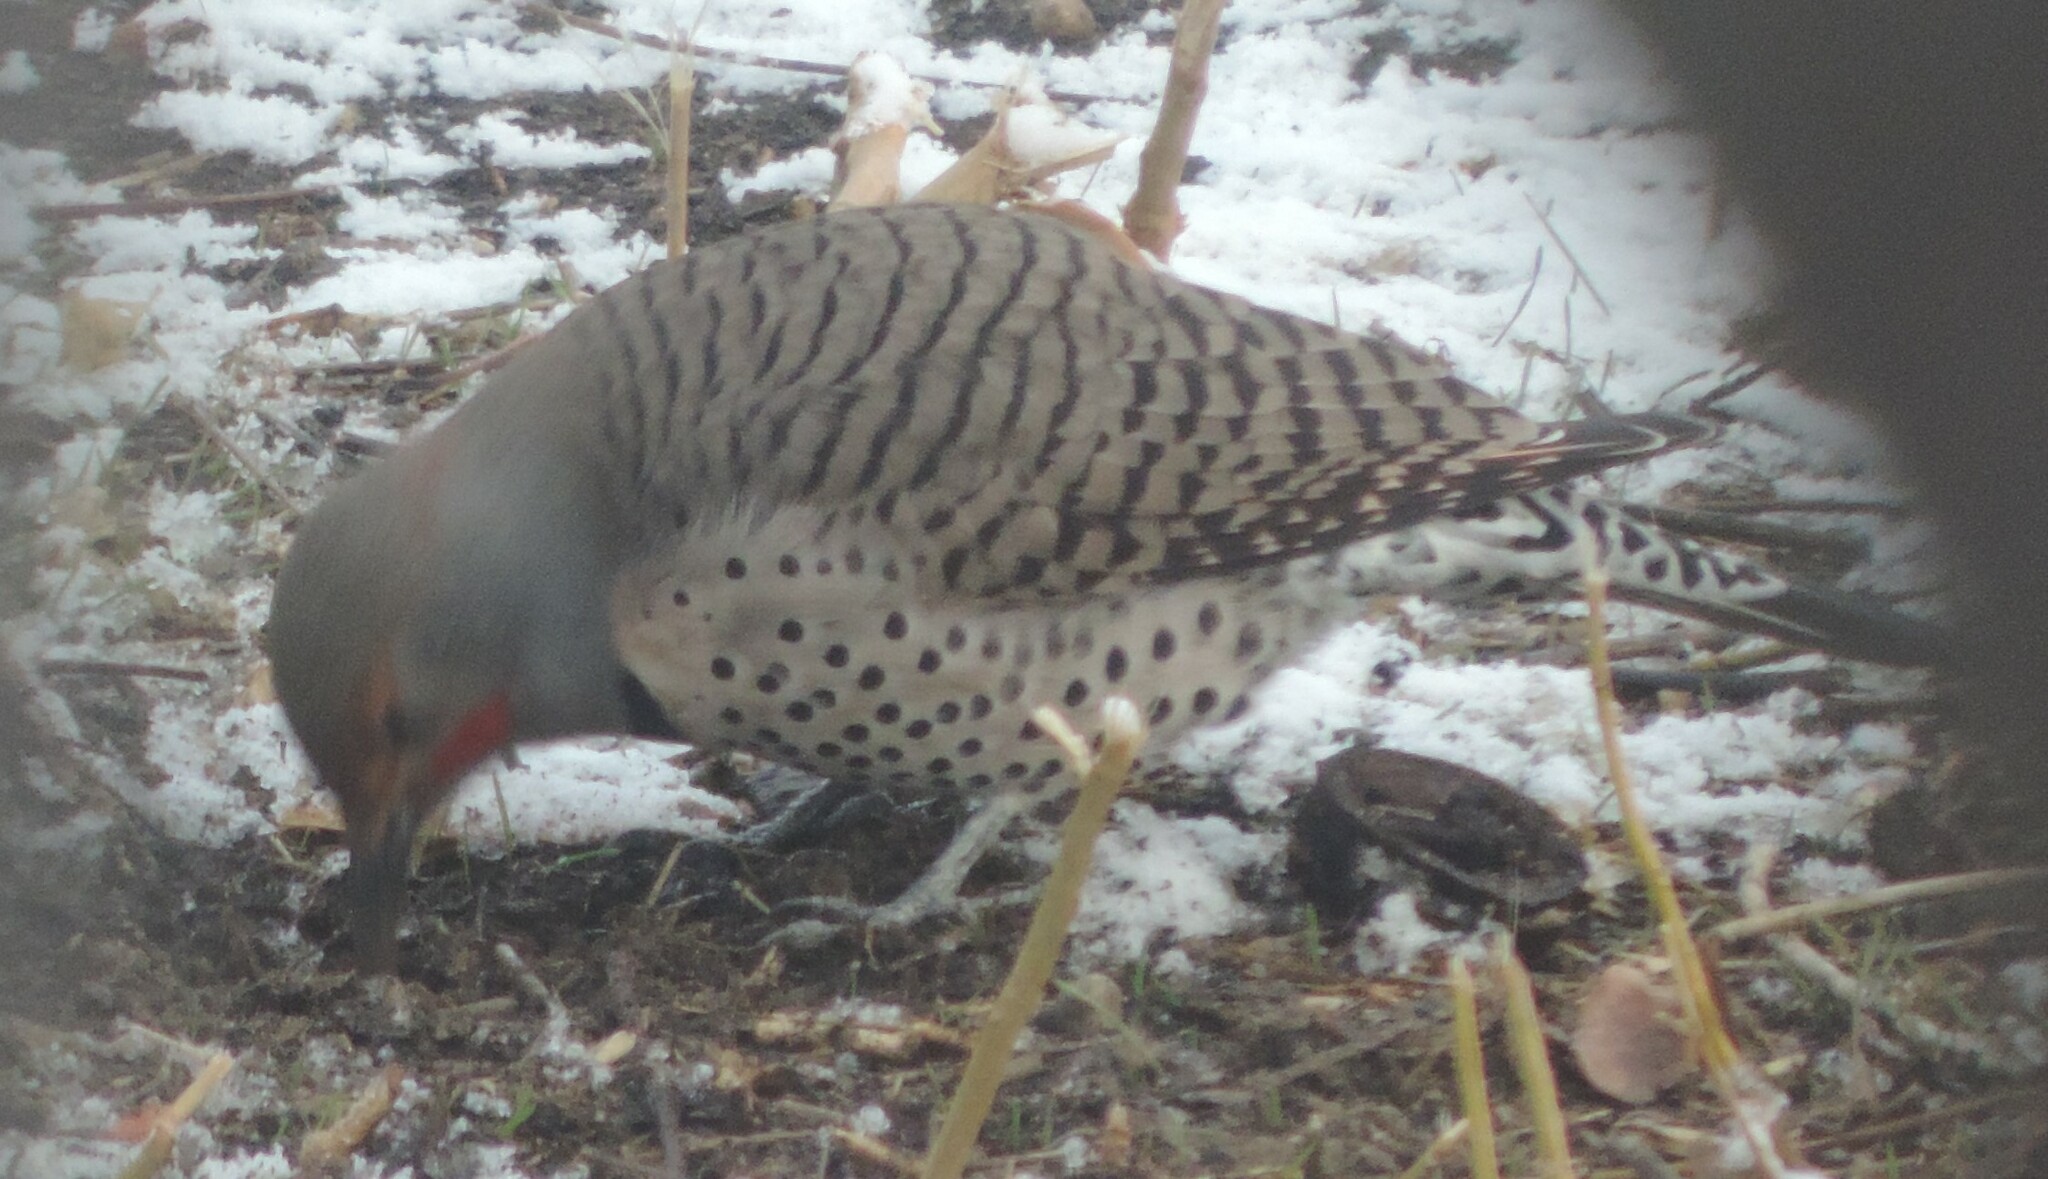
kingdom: Animalia
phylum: Chordata
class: Aves
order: Piciformes
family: Picidae
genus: Colaptes
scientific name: Colaptes auratus
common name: Northern flicker
